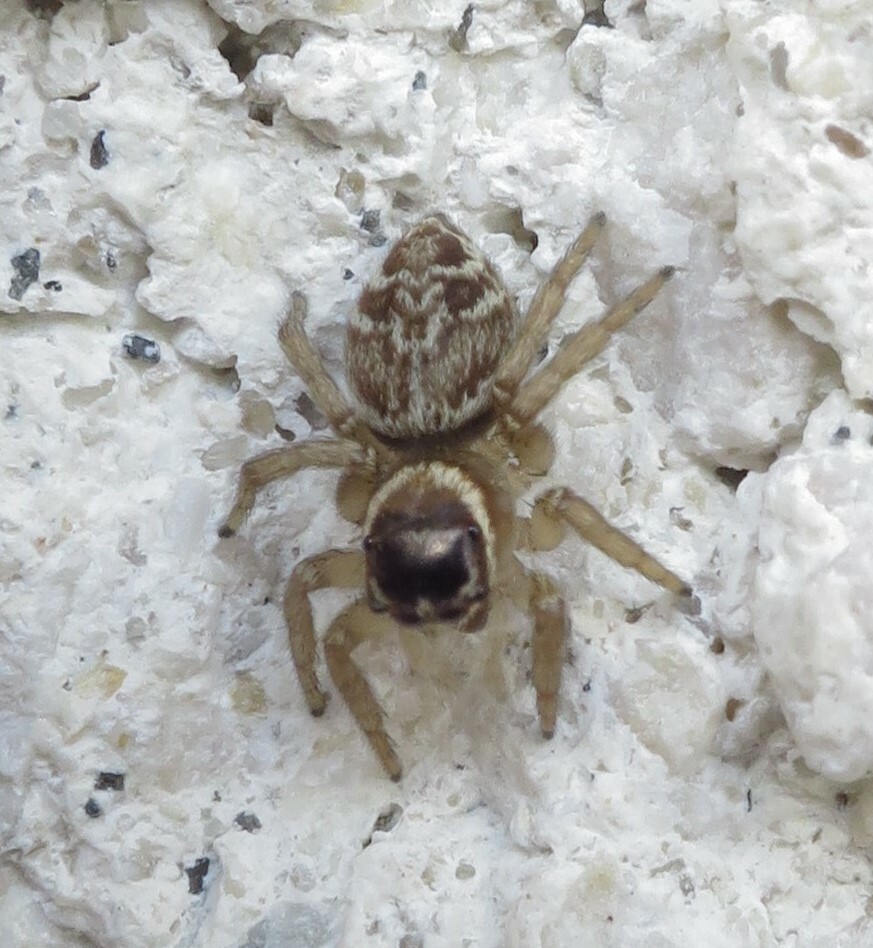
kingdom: Animalia
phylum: Arthropoda
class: Arachnida
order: Araneae
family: Salticidae
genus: Maratus
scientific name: Maratus griseus
